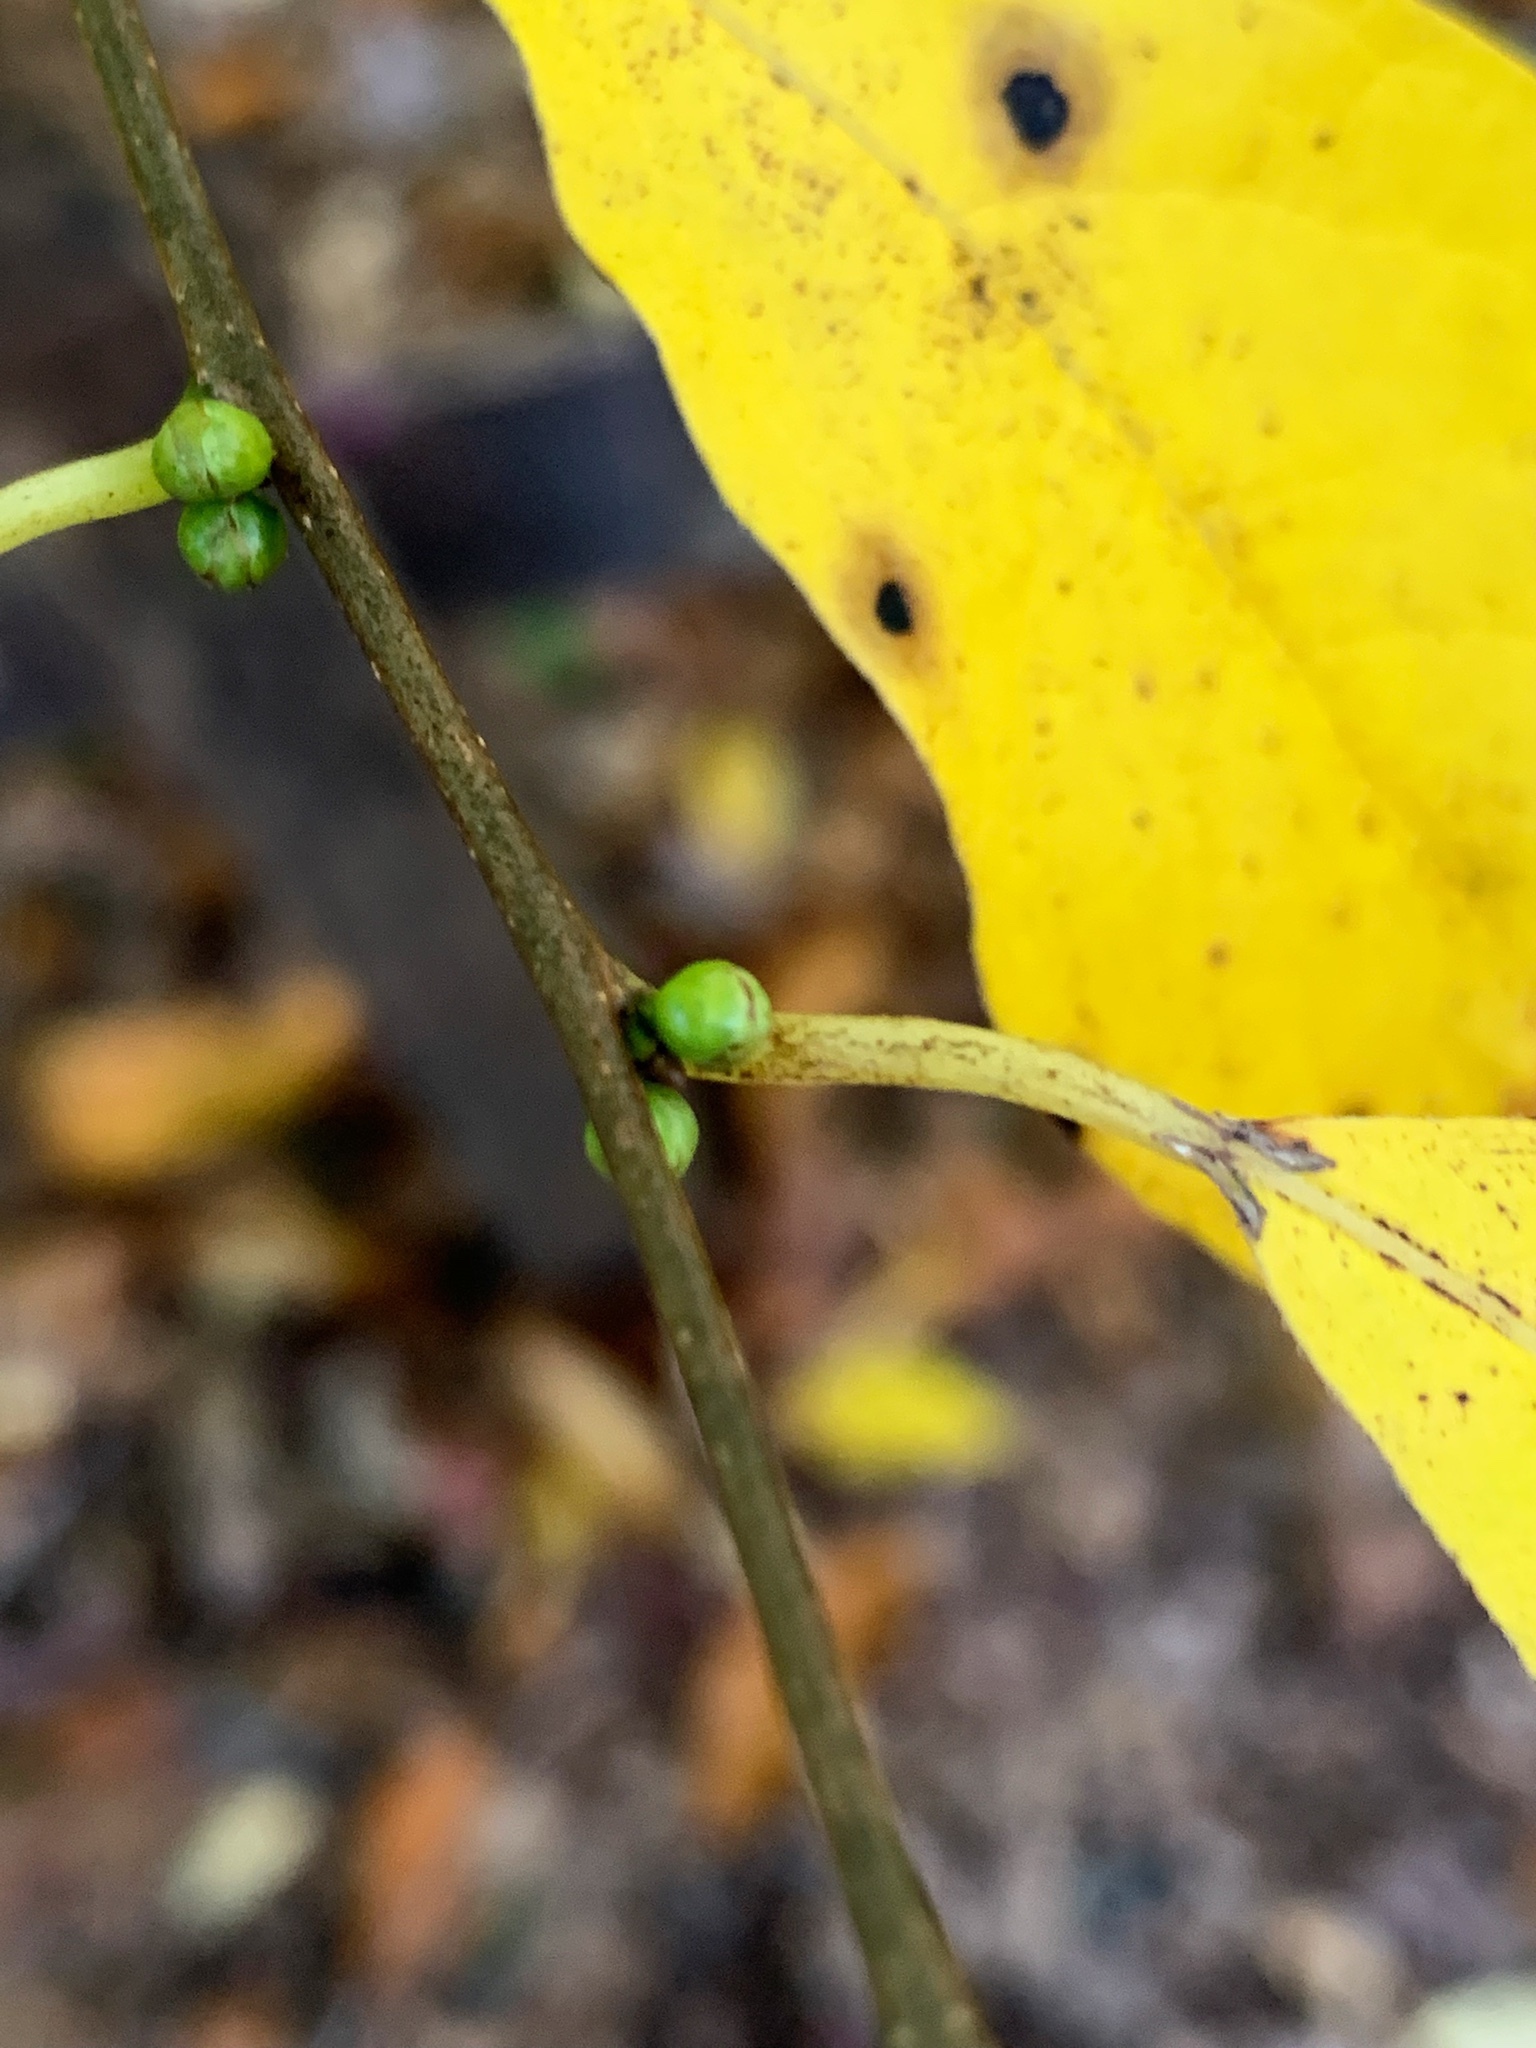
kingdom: Plantae
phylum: Tracheophyta
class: Magnoliopsida
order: Laurales
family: Lauraceae
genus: Lindera
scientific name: Lindera benzoin
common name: Spicebush
